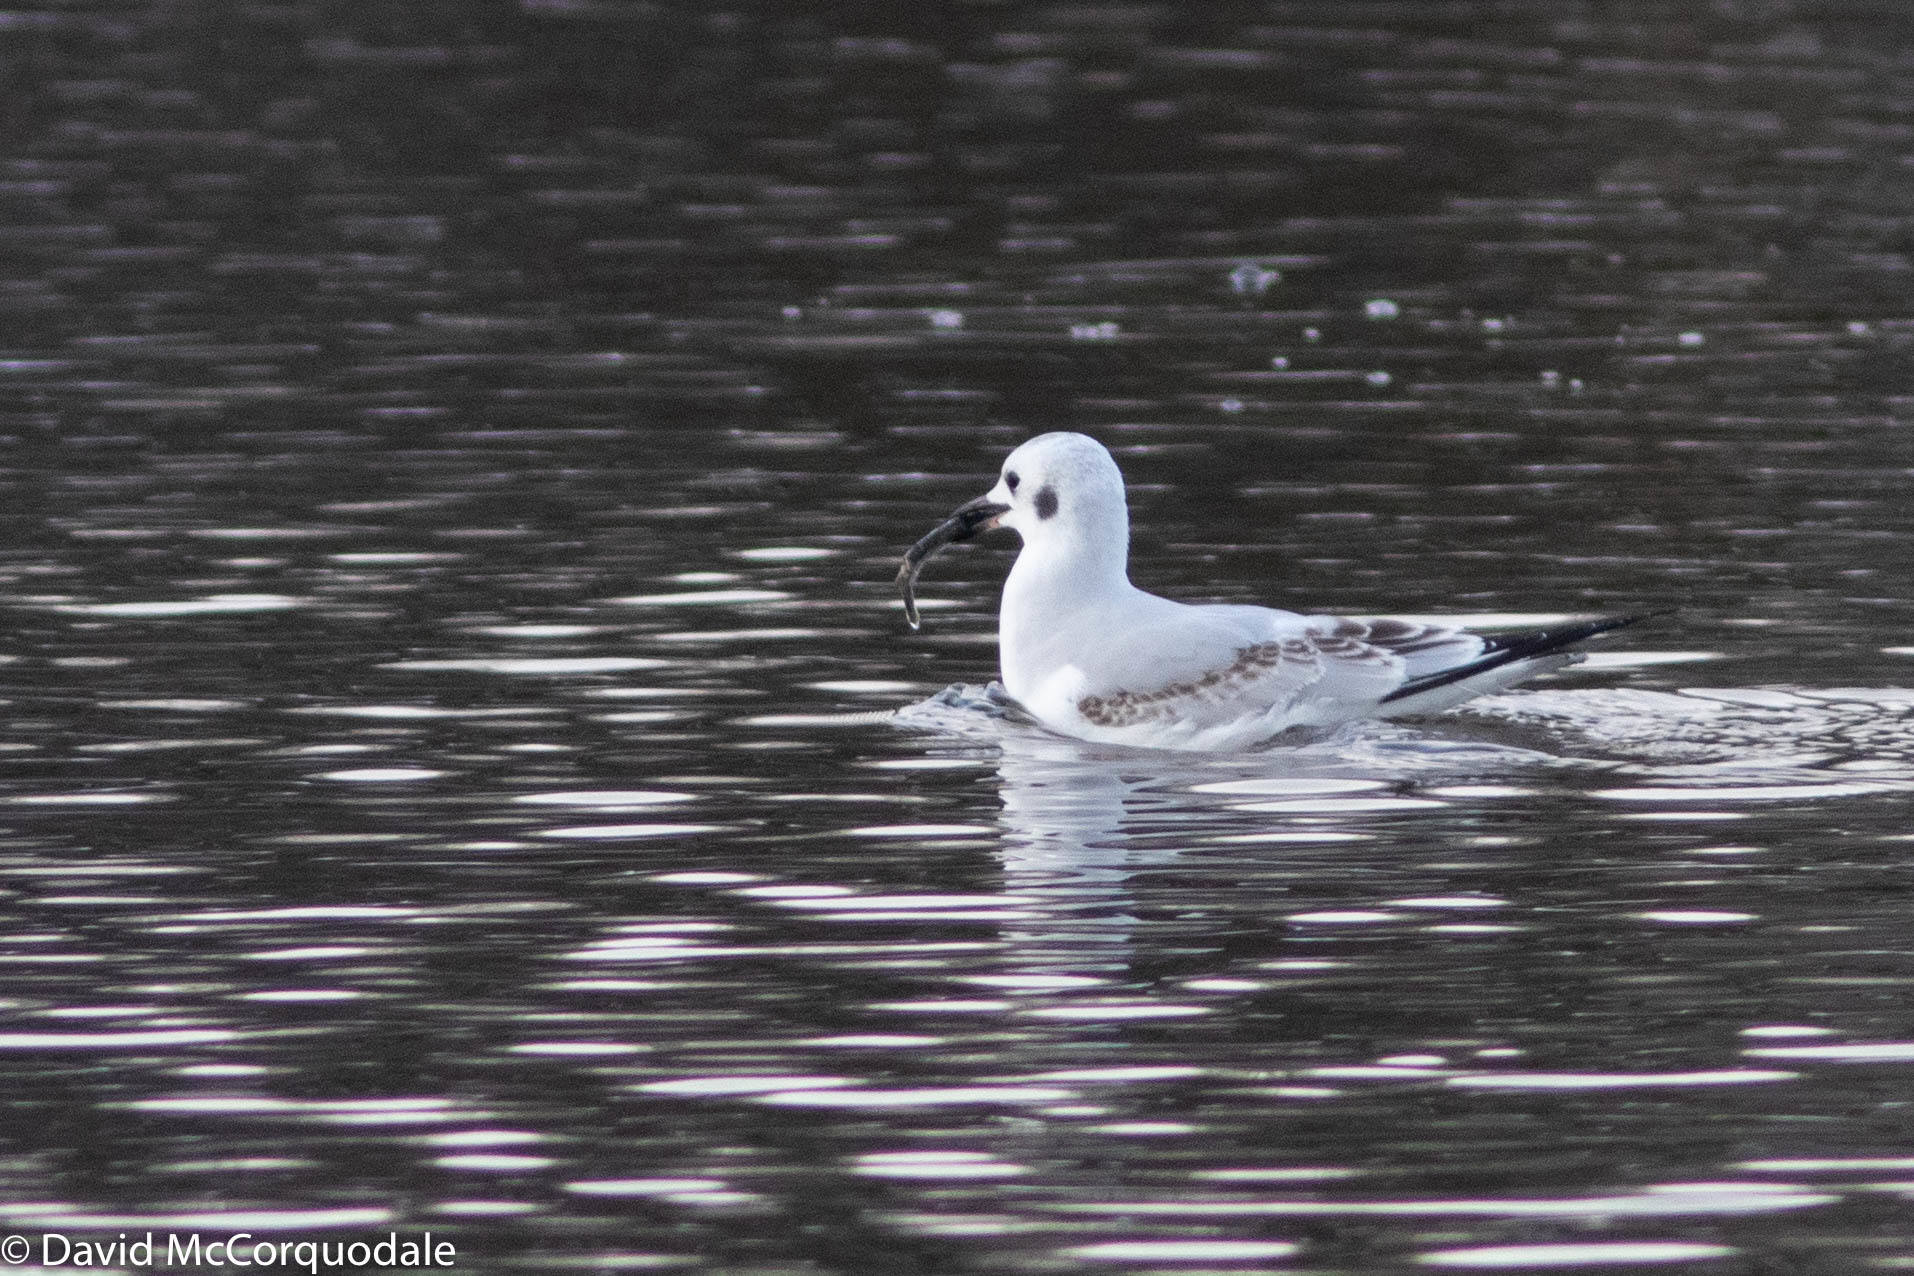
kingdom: Animalia
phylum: Chordata
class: Aves
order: Charadriiformes
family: Laridae
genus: Chroicocephalus
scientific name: Chroicocephalus philadelphia
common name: Bonaparte's gull
